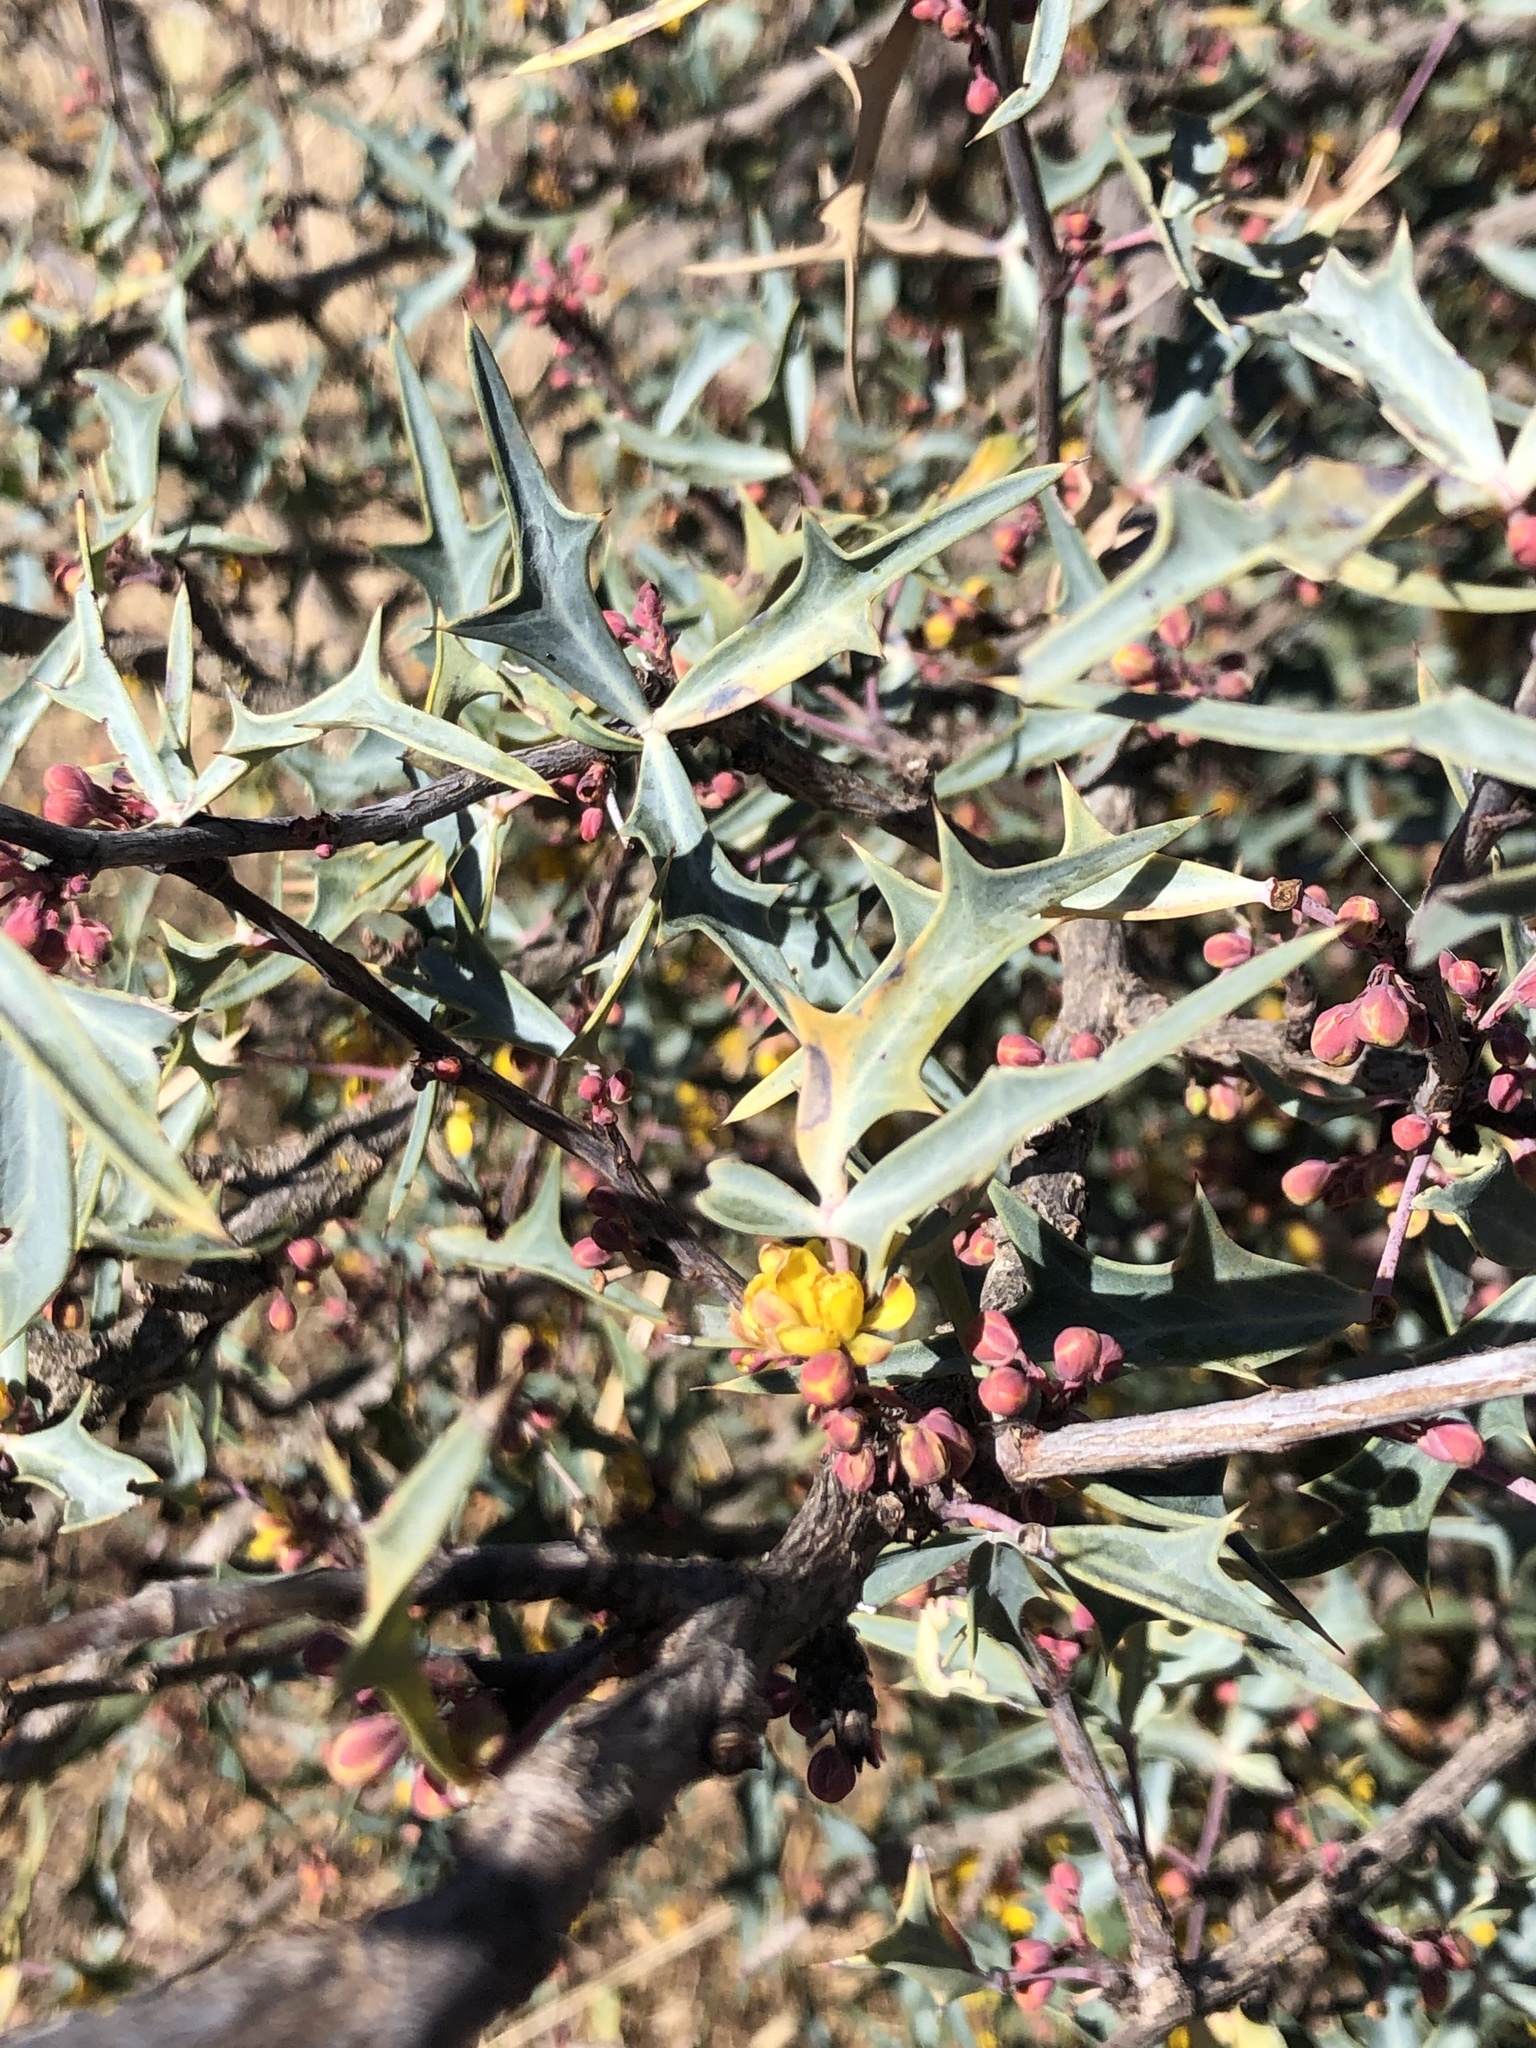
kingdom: Plantae
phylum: Tracheophyta
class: Magnoliopsida
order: Ranunculales
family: Berberidaceae
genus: Alloberberis
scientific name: Alloberberis trifoliolata
